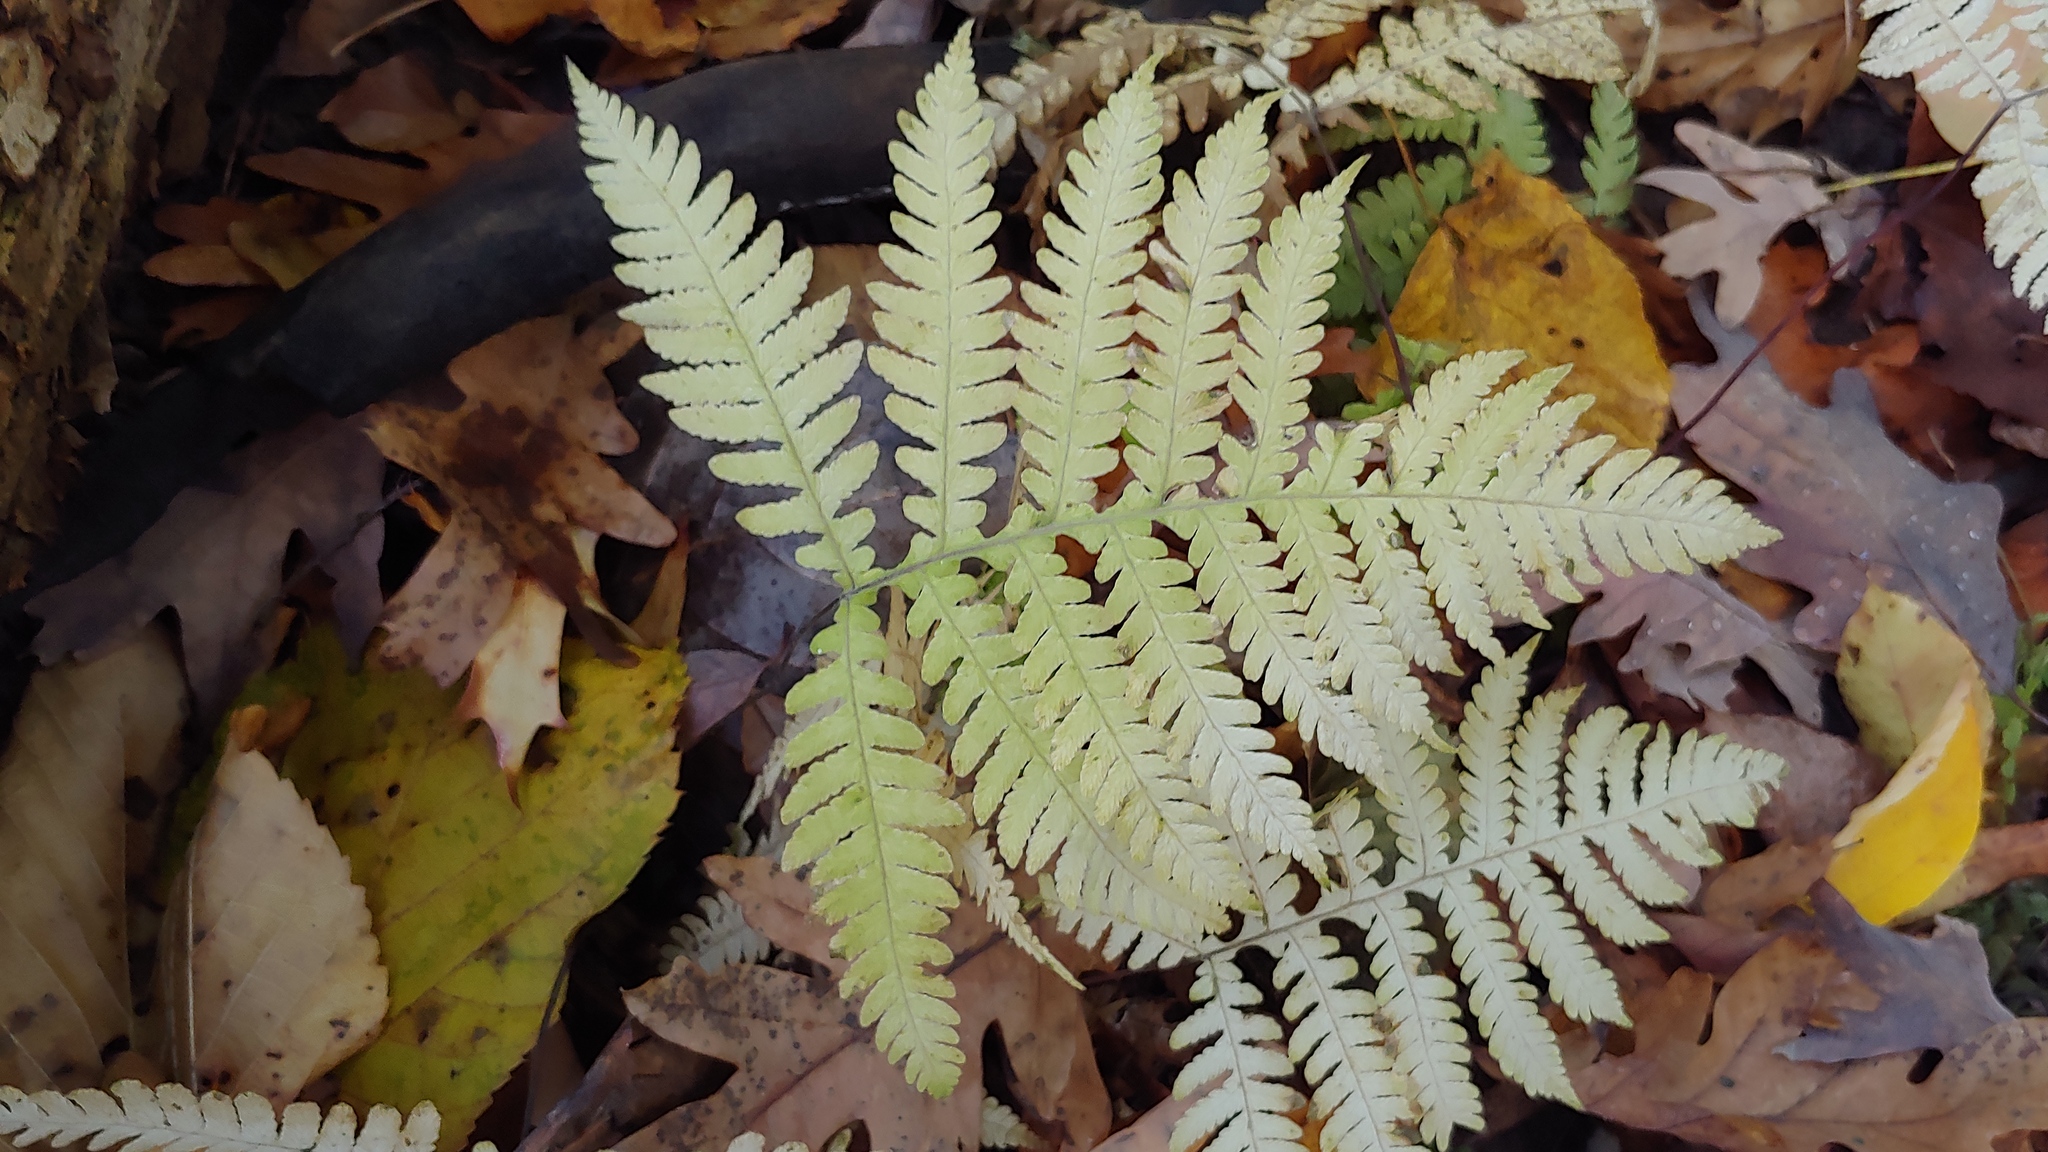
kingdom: Plantae
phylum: Tracheophyta
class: Polypodiopsida
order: Polypodiales
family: Thelypteridaceae
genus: Phegopteris
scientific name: Phegopteris hexagonoptera
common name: Broad beech fern
